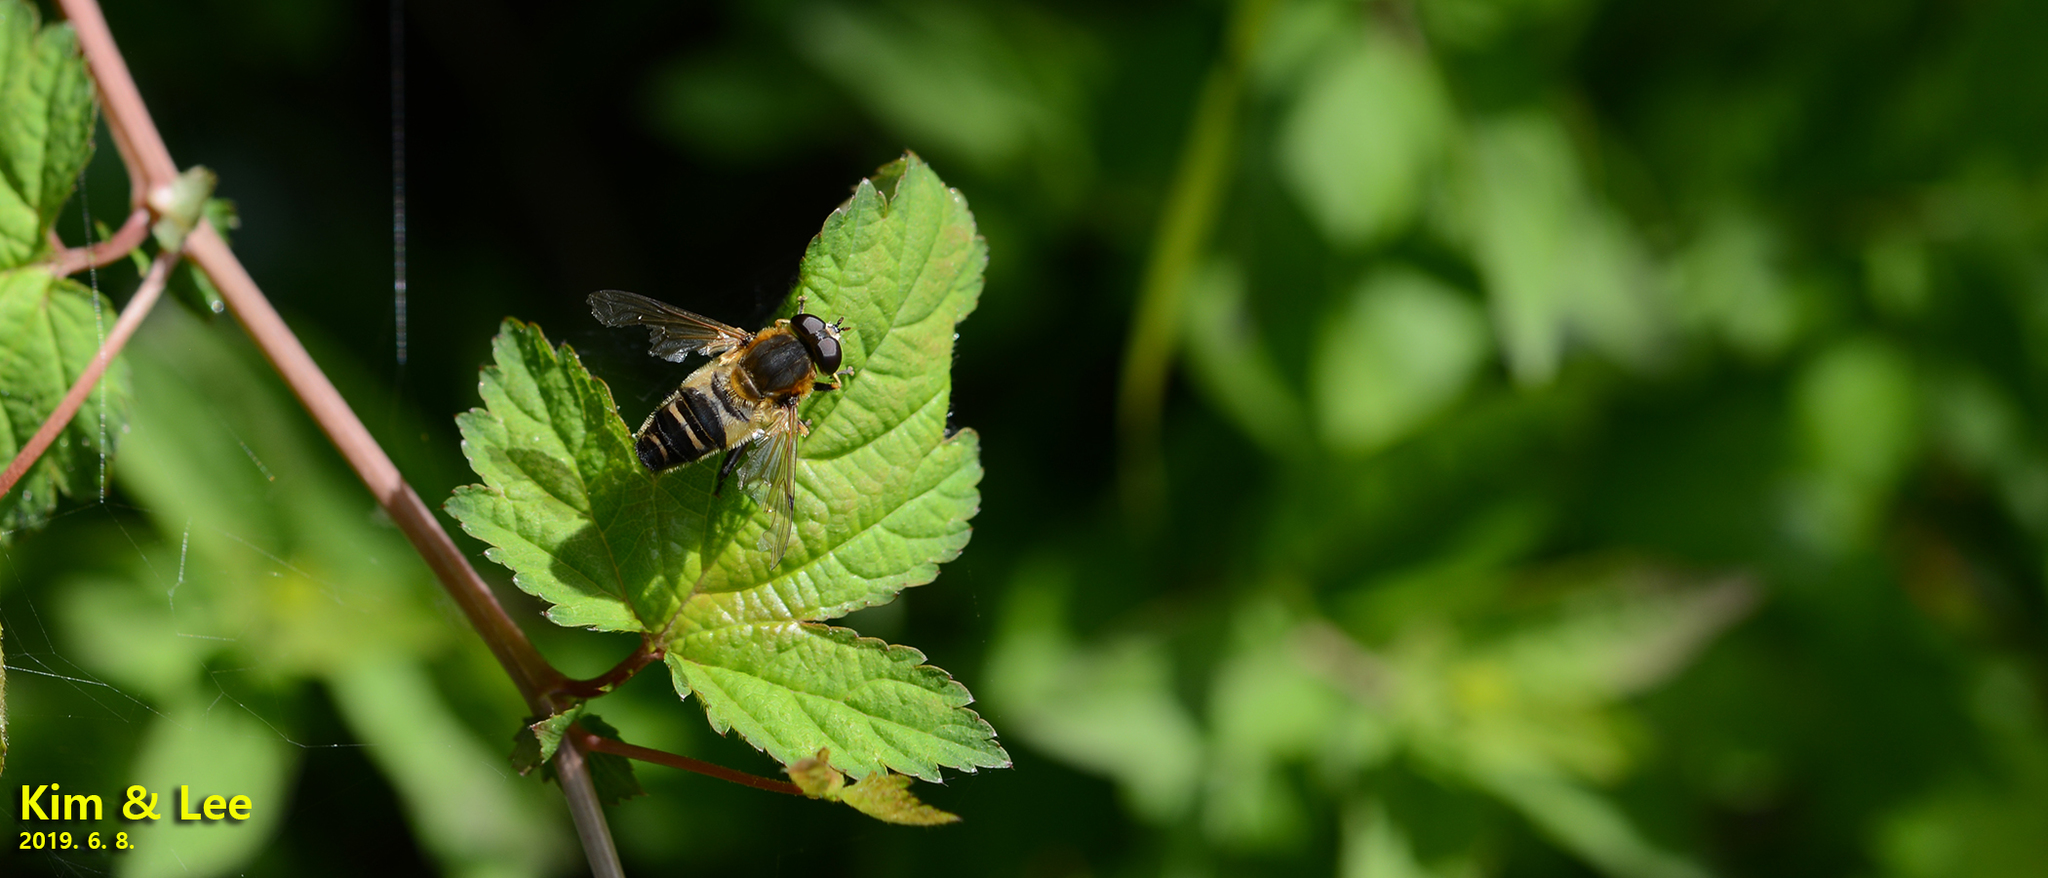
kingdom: Animalia
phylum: Arthropoda
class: Insecta
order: Diptera
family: Syrphidae
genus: Helophilus
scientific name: Helophilus eristaloideus
